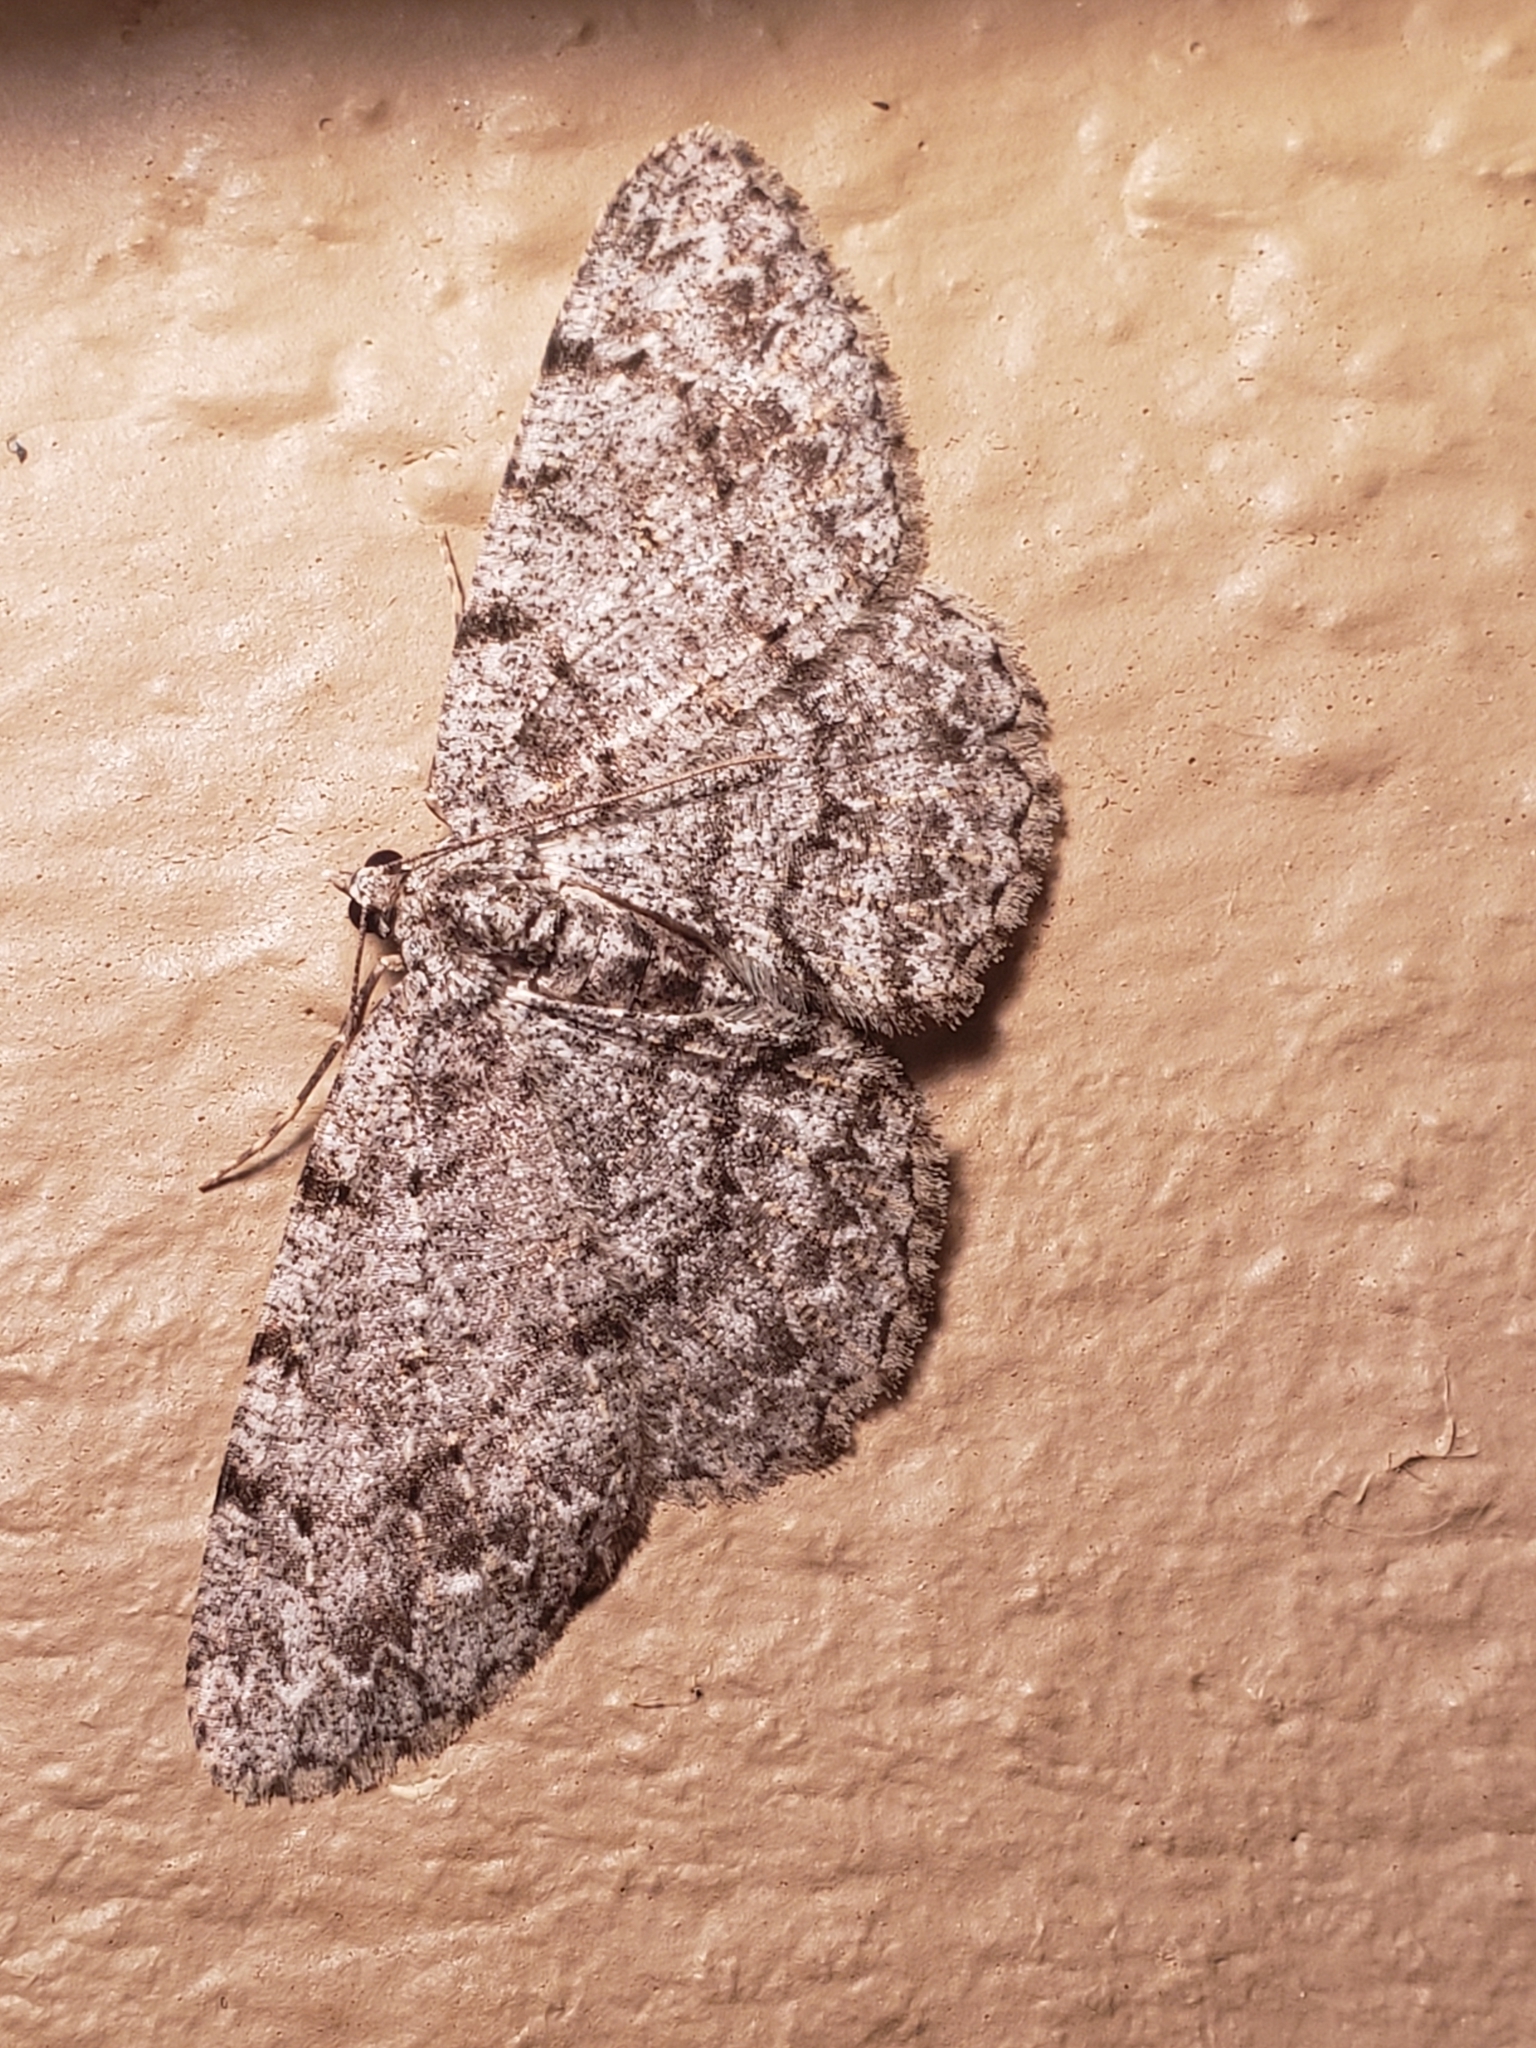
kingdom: Animalia
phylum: Arthropoda
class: Insecta
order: Lepidoptera
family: Geometridae
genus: Protoboarmia
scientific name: Protoboarmia porcelaria
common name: Porcelain gray
